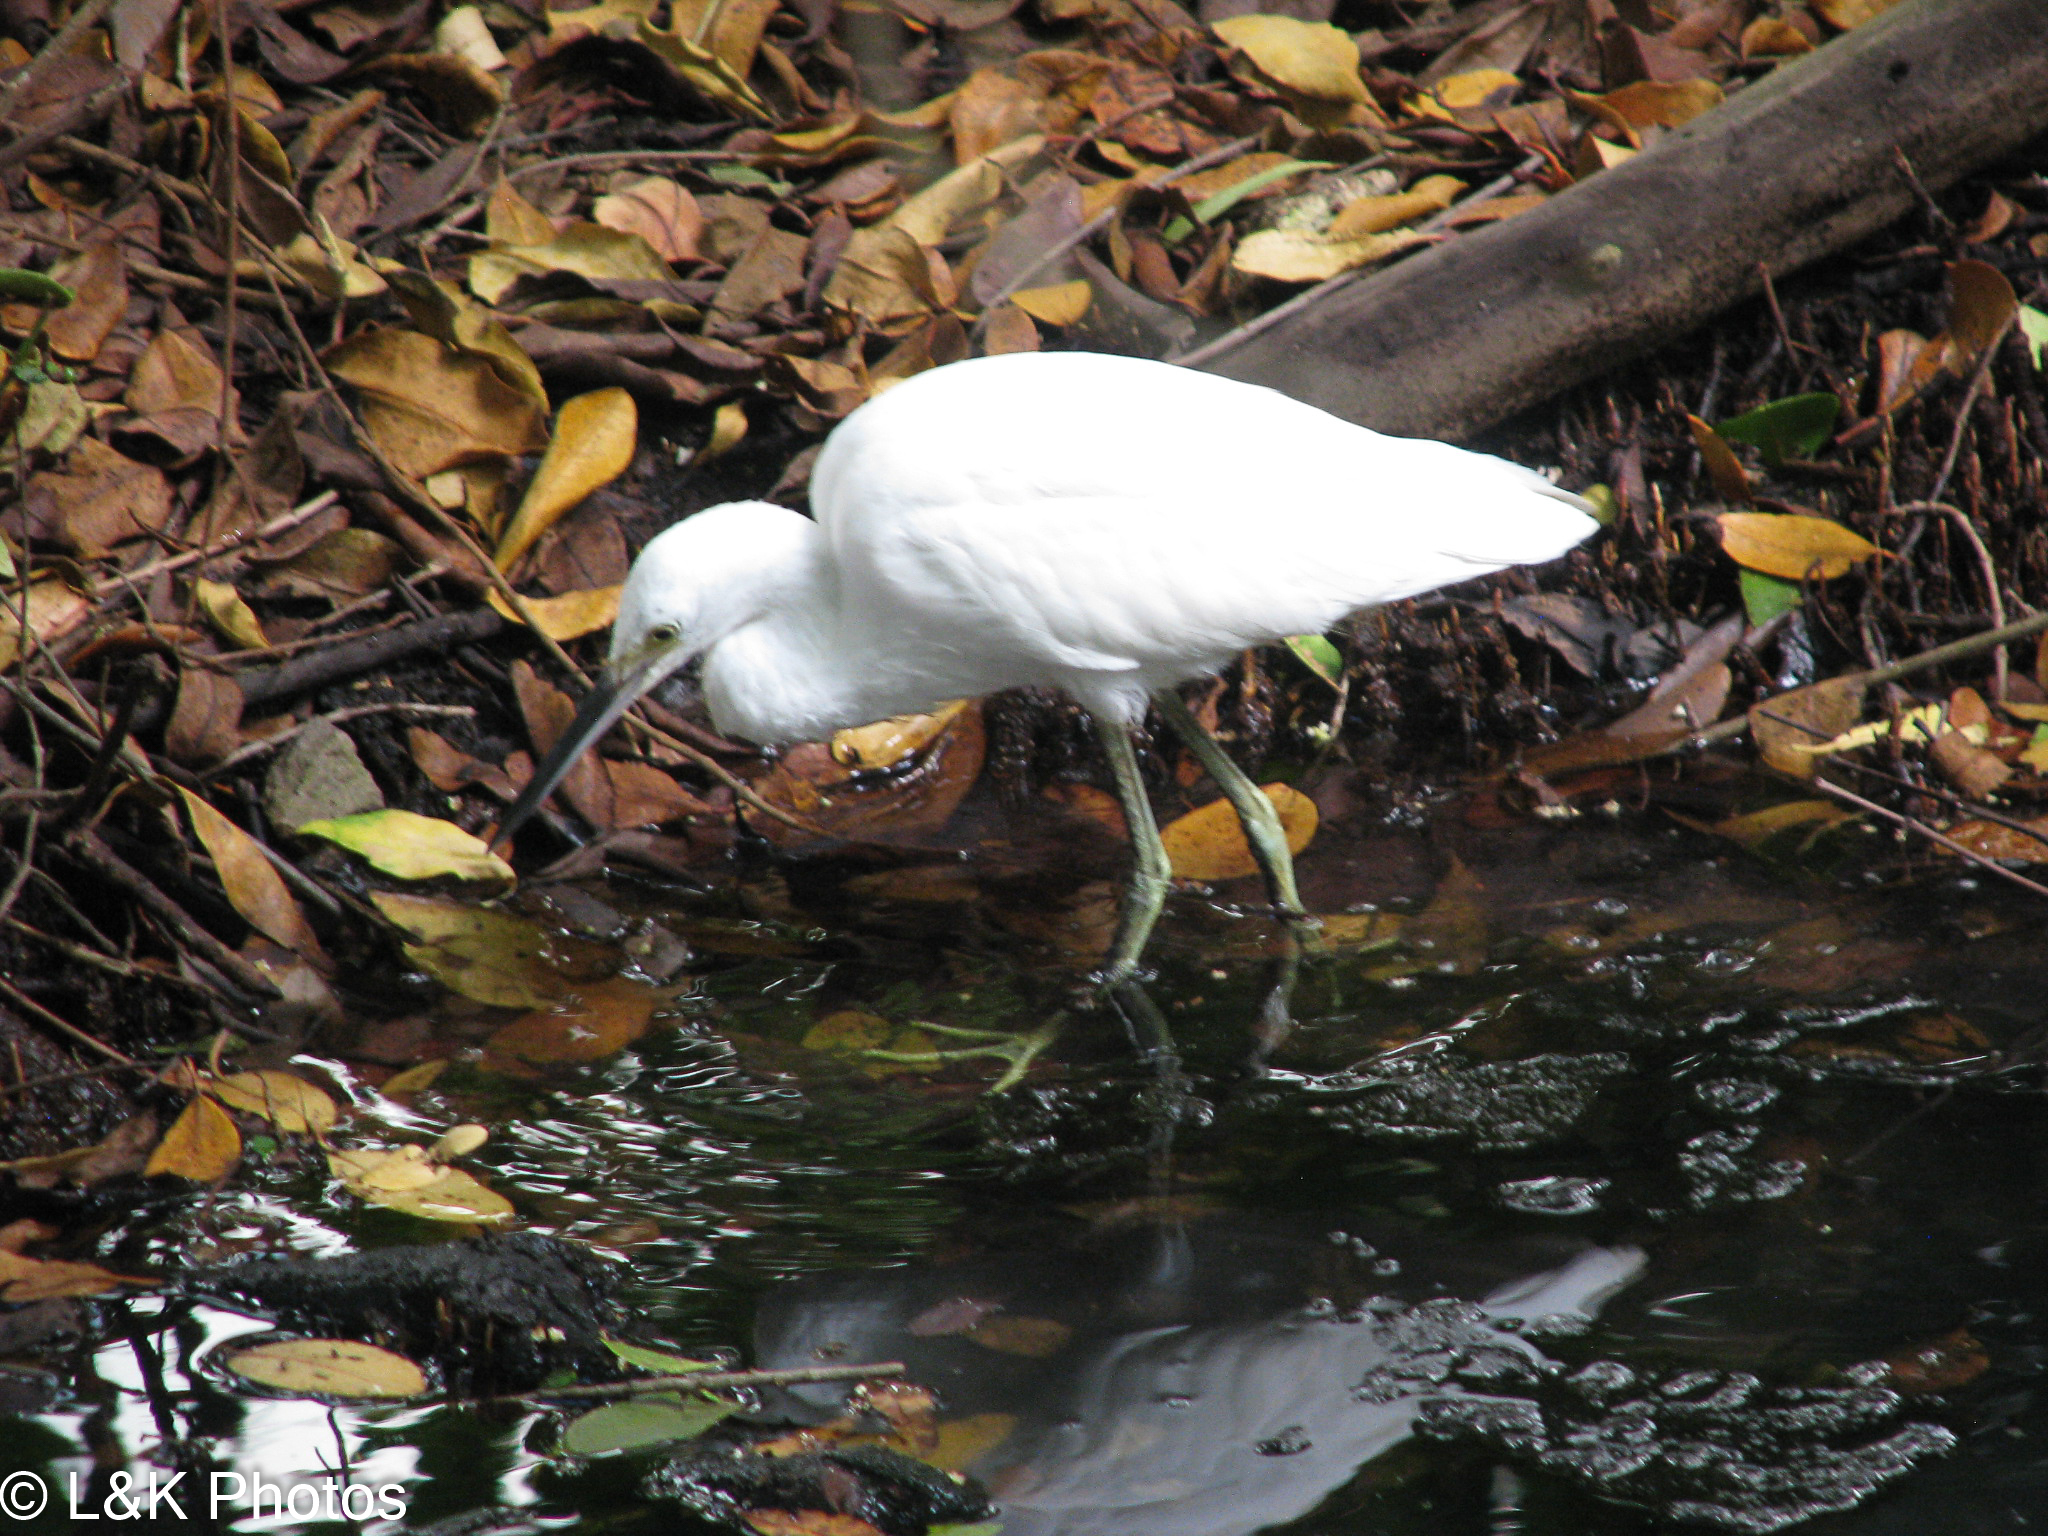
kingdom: Animalia
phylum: Chordata
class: Aves
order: Pelecaniformes
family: Ardeidae
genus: Egretta
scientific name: Egretta caerulea
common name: Little blue heron
